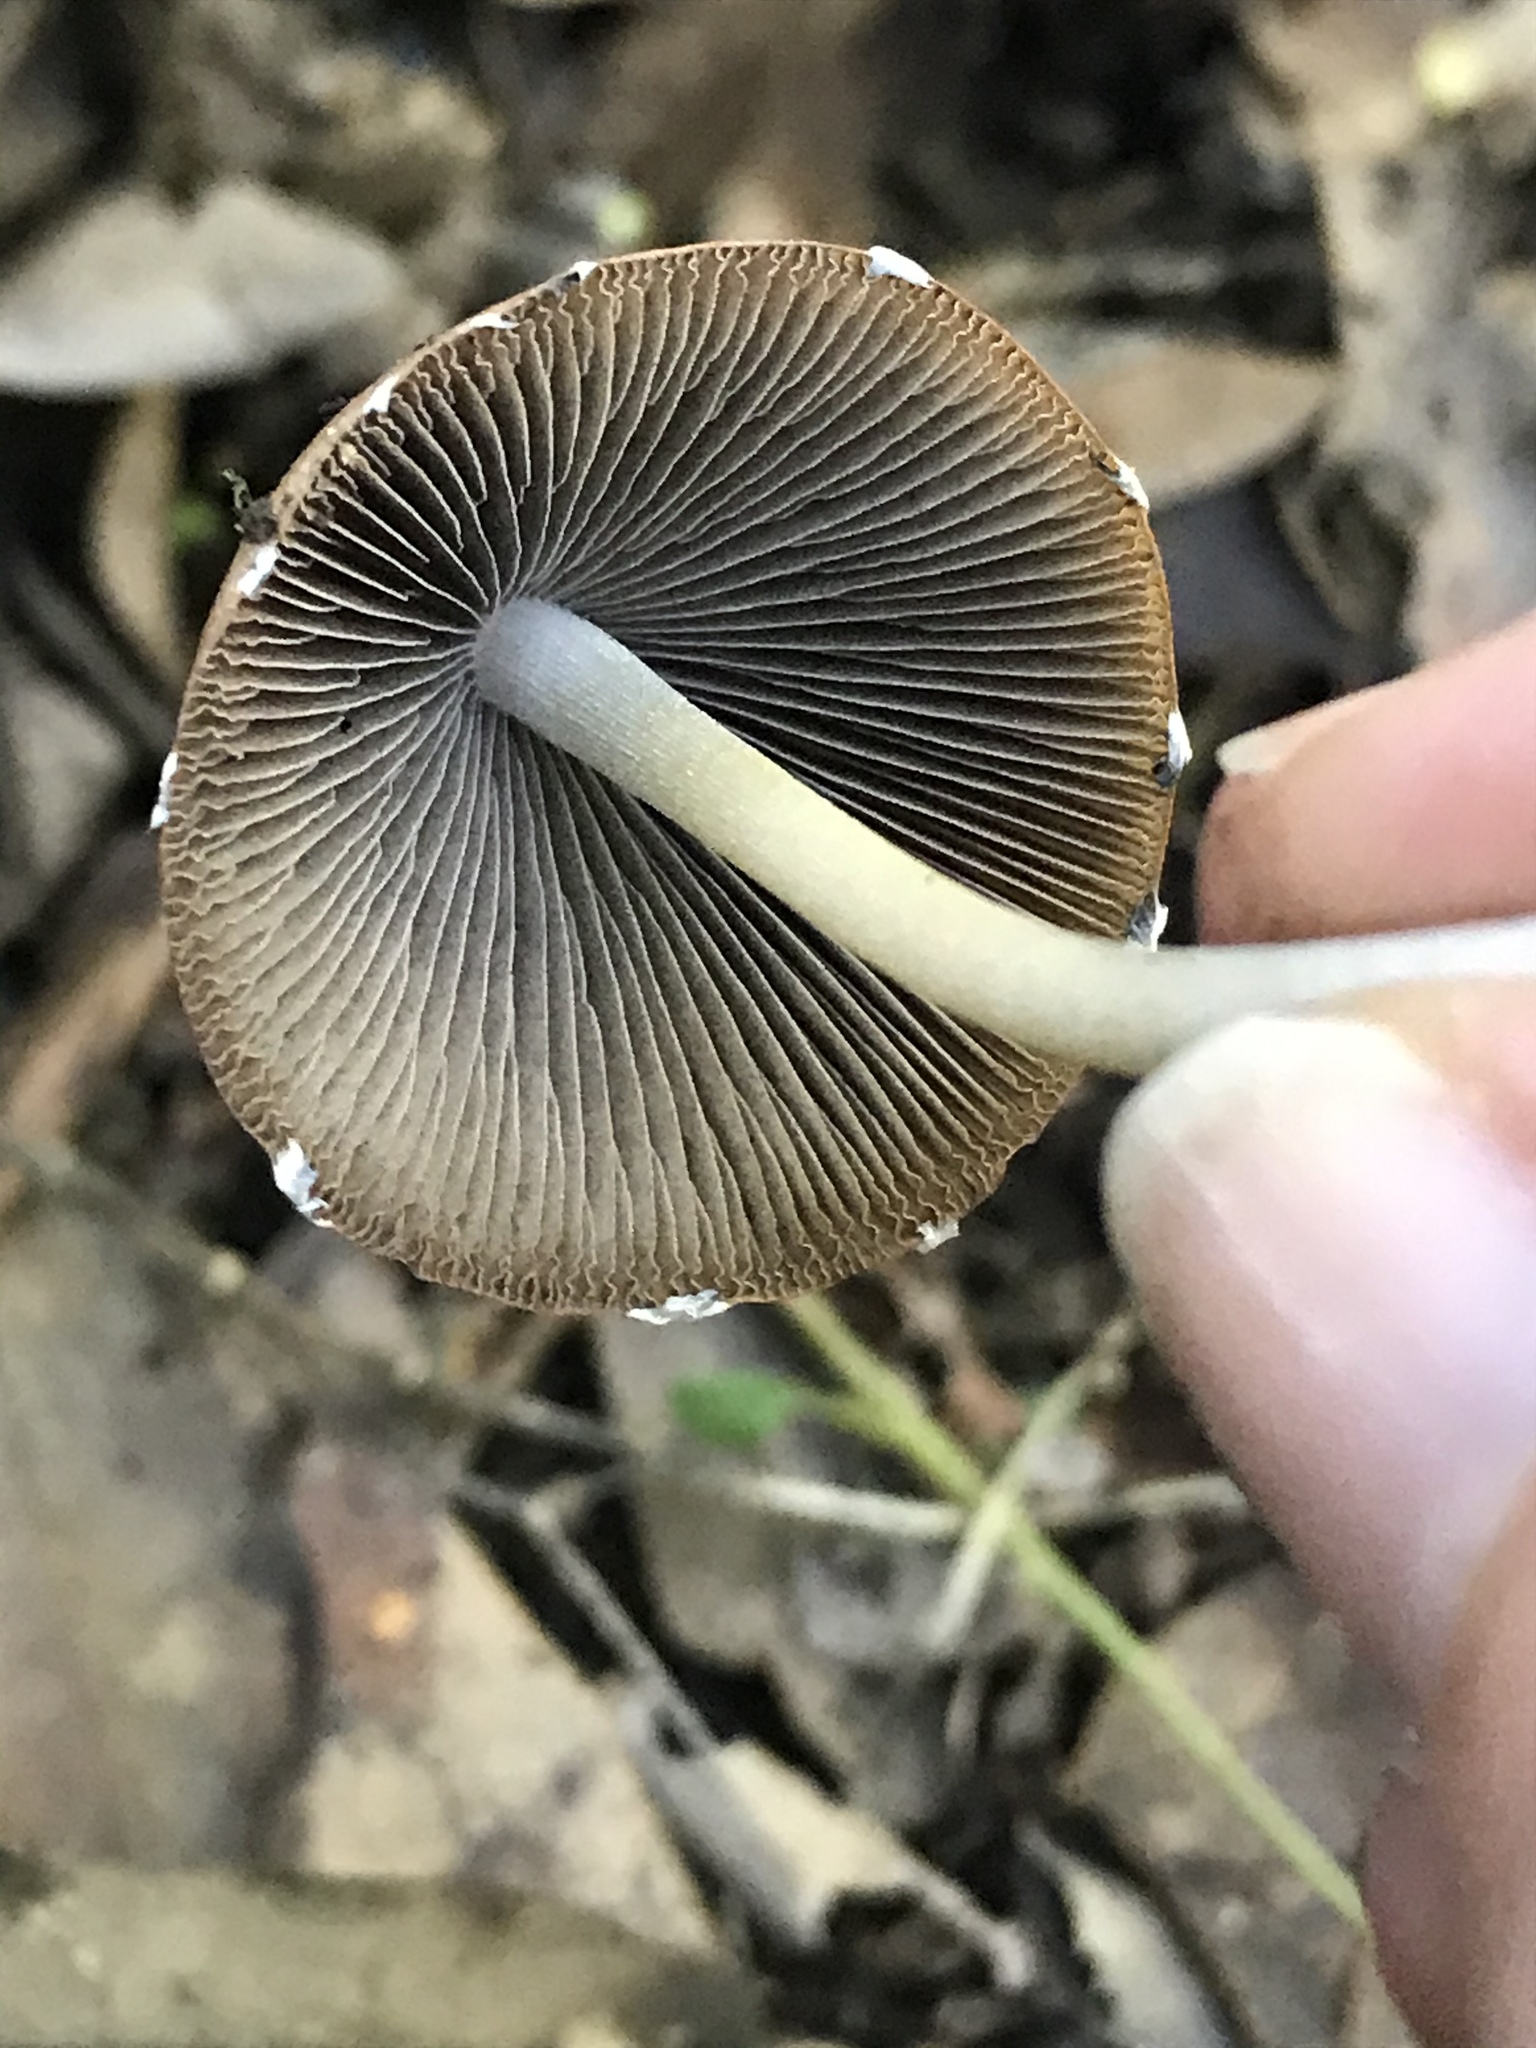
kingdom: Fungi
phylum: Basidiomycota
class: Agaricomycetes
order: Agaricales
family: Psathyrellaceae
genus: Psathyrella
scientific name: Psathyrella longipes
